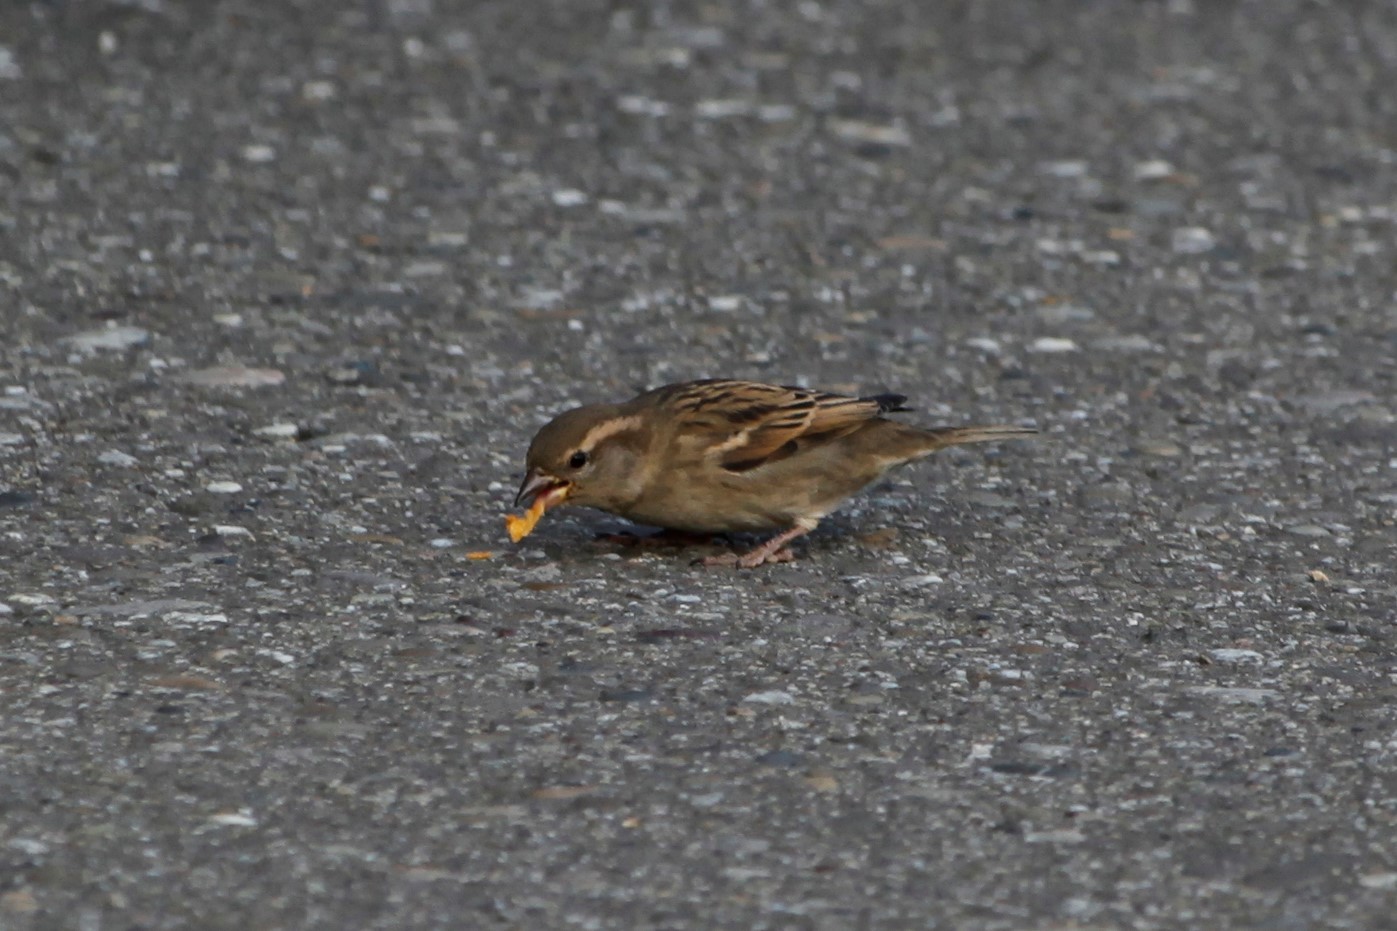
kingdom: Animalia
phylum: Chordata
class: Aves
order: Passeriformes
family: Passeridae
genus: Passer
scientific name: Passer domesticus
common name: House sparrow
